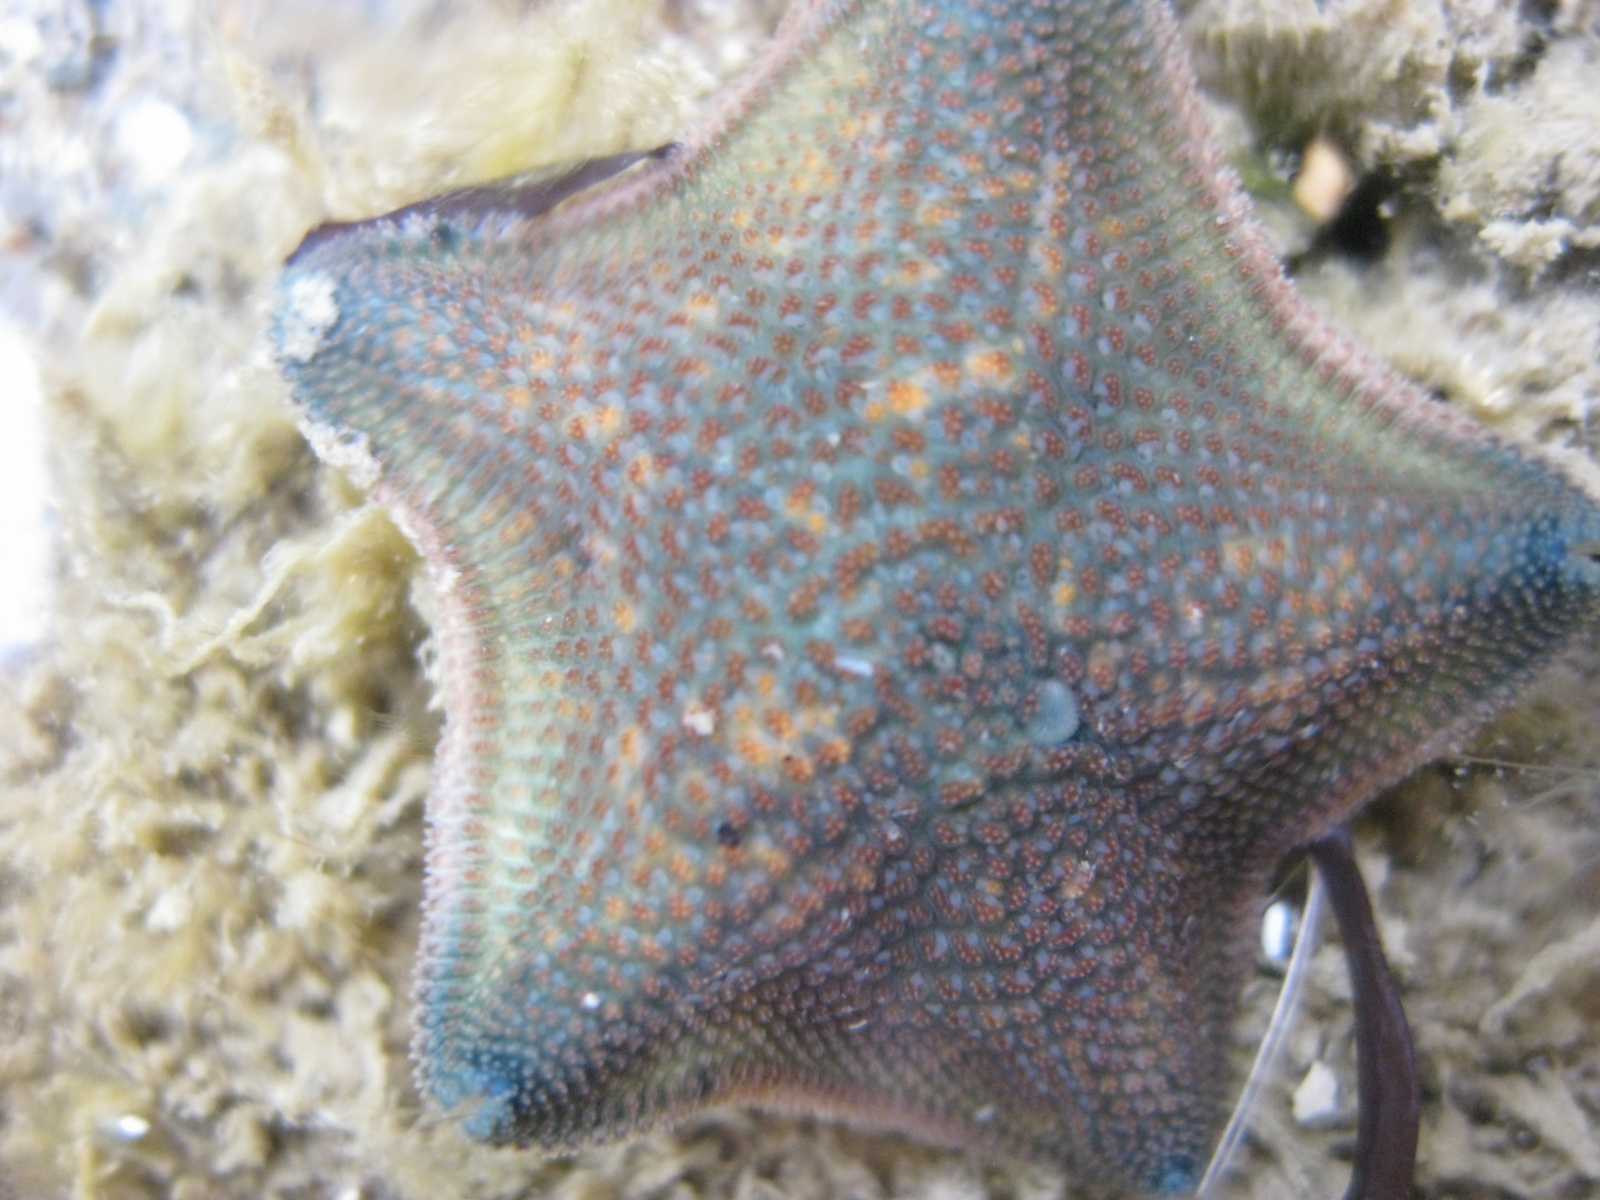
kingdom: Animalia
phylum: Echinodermata
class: Asteroidea
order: Valvatida
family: Asterinidae
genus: Patiriella
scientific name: Patiriella regularis
